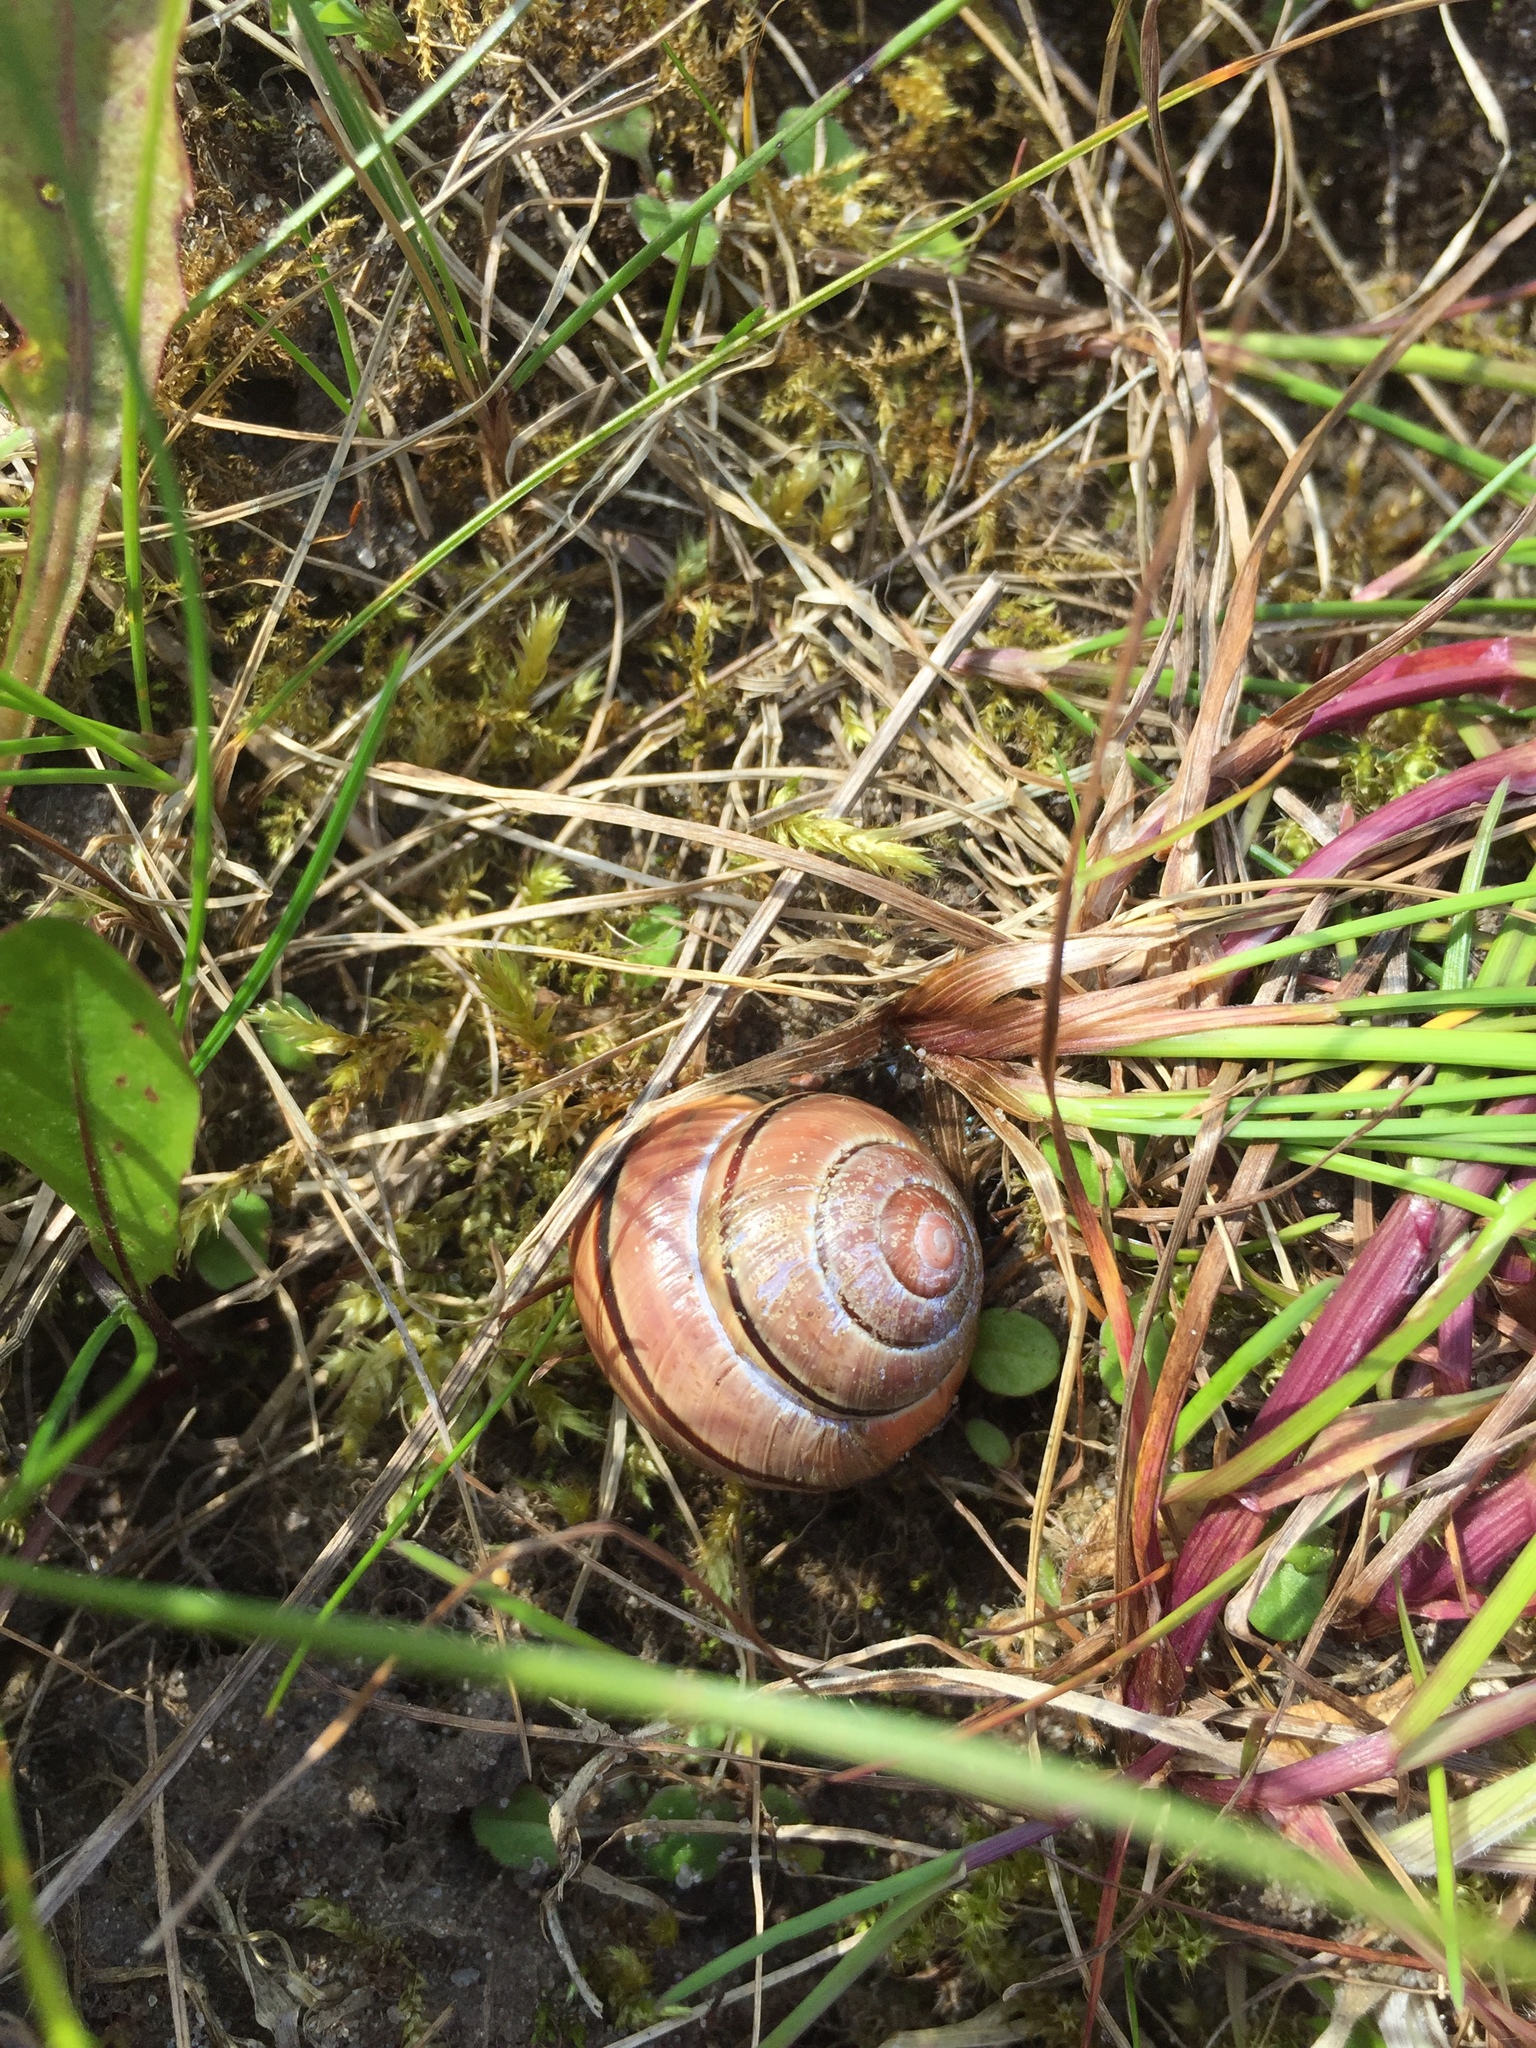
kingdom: Animalia
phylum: Mollusca
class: Gastropoda
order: Stylommatophora
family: Helicidae
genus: Cepaea
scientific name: Cepaea nemoralis
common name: Grovesnail
